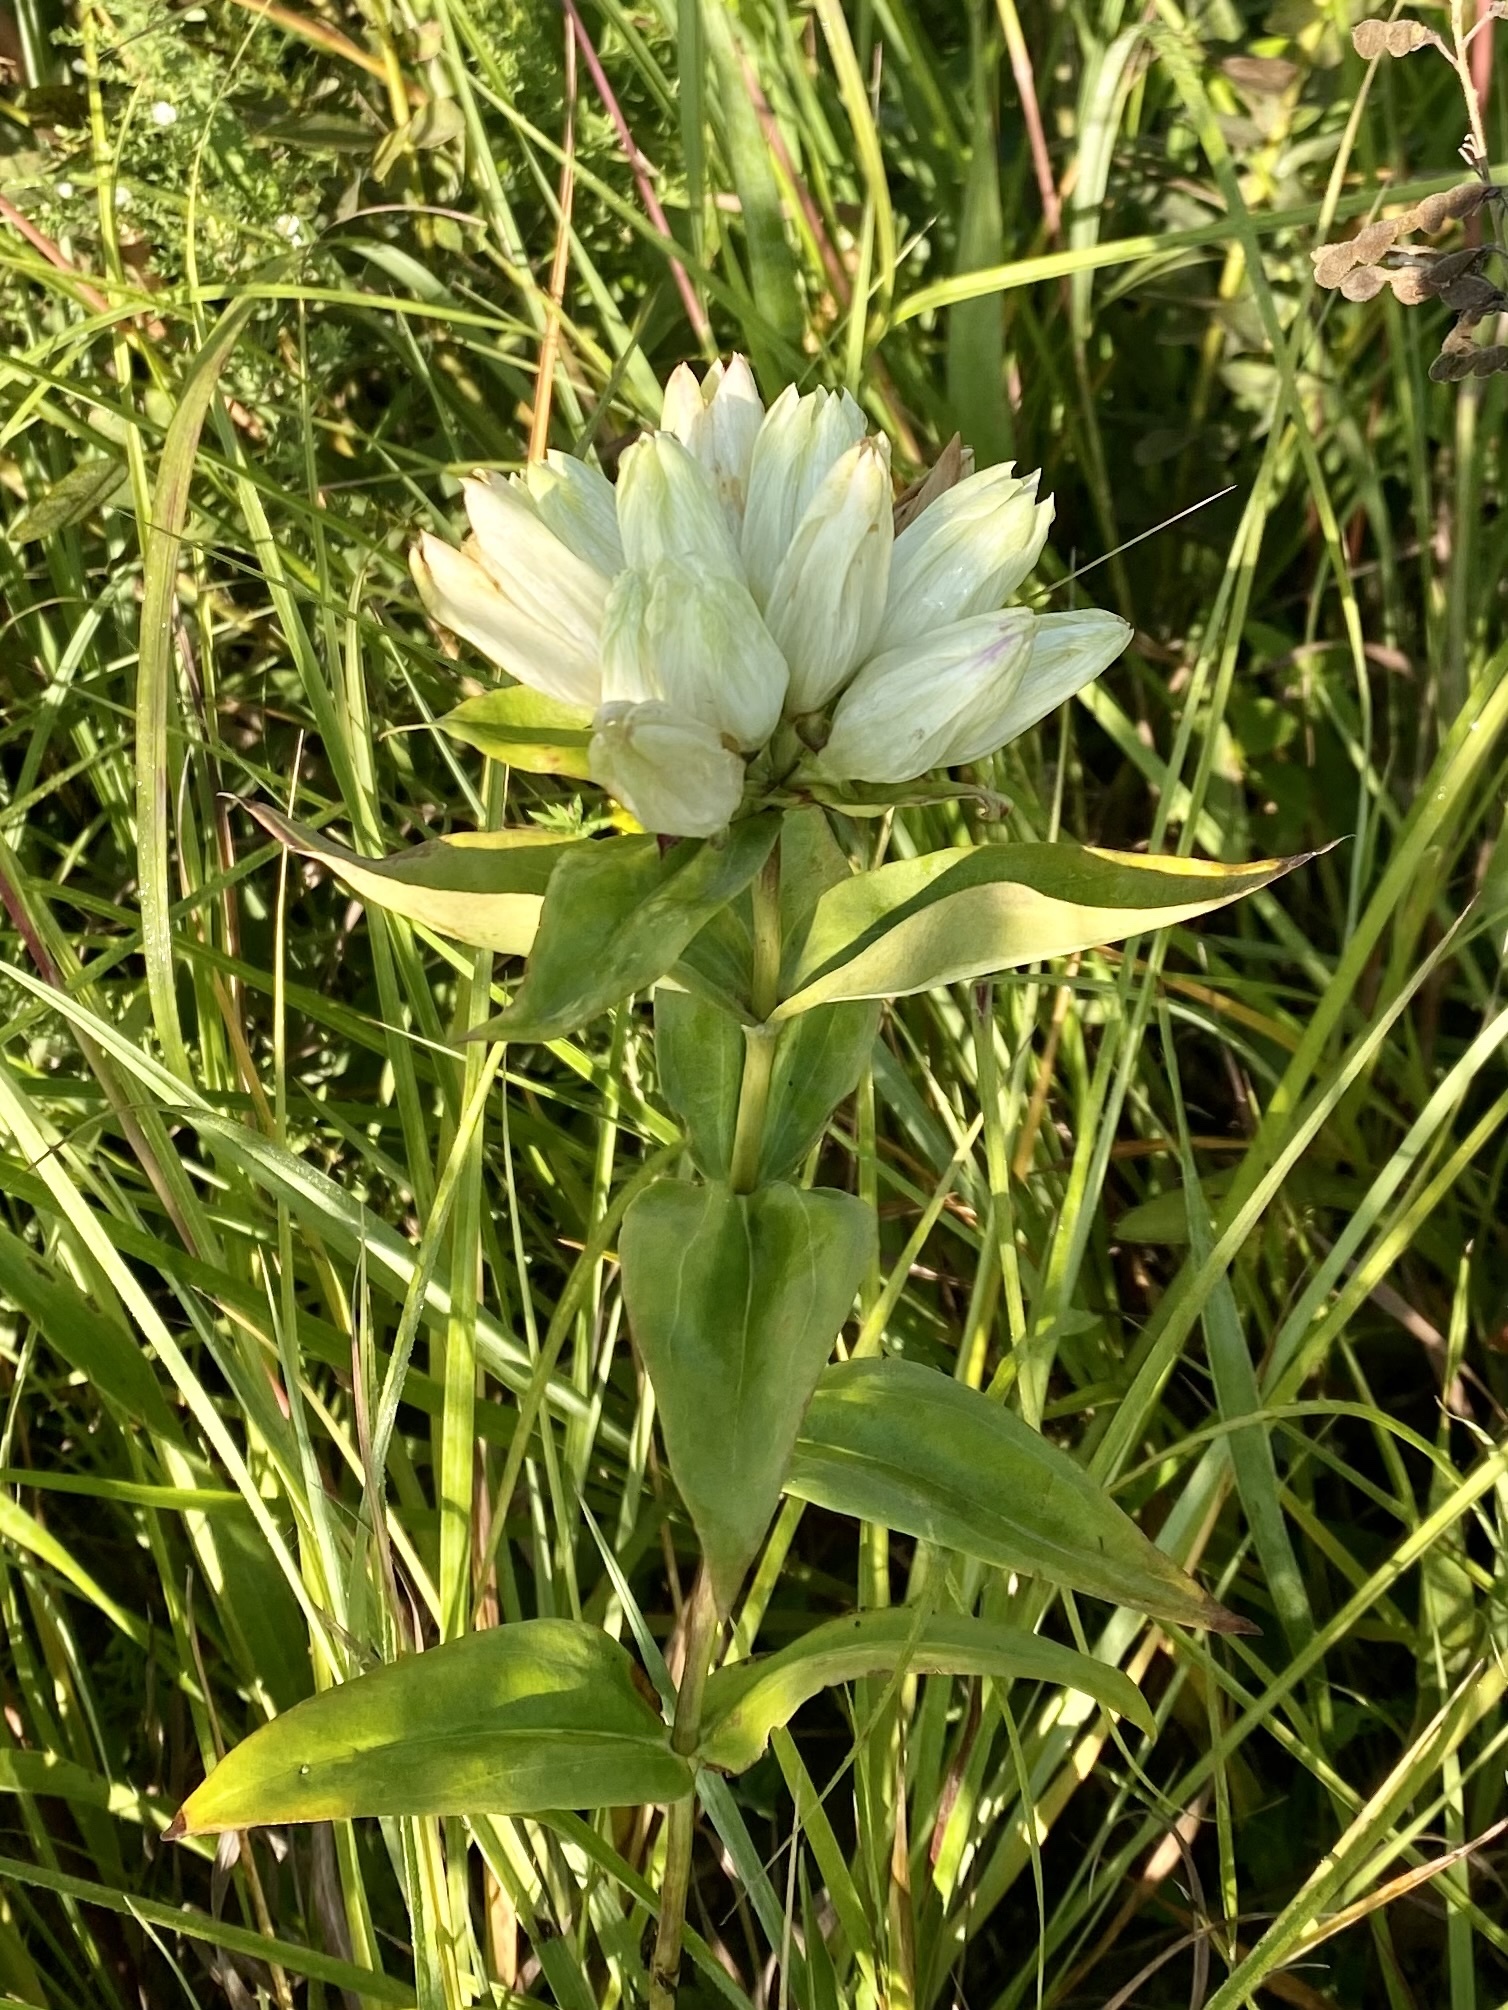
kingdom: Plantae
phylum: Tracheophyta
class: Magnoliopsida
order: Gentianales
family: Gentianaceae
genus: Gentiana
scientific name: Gentiana alba
